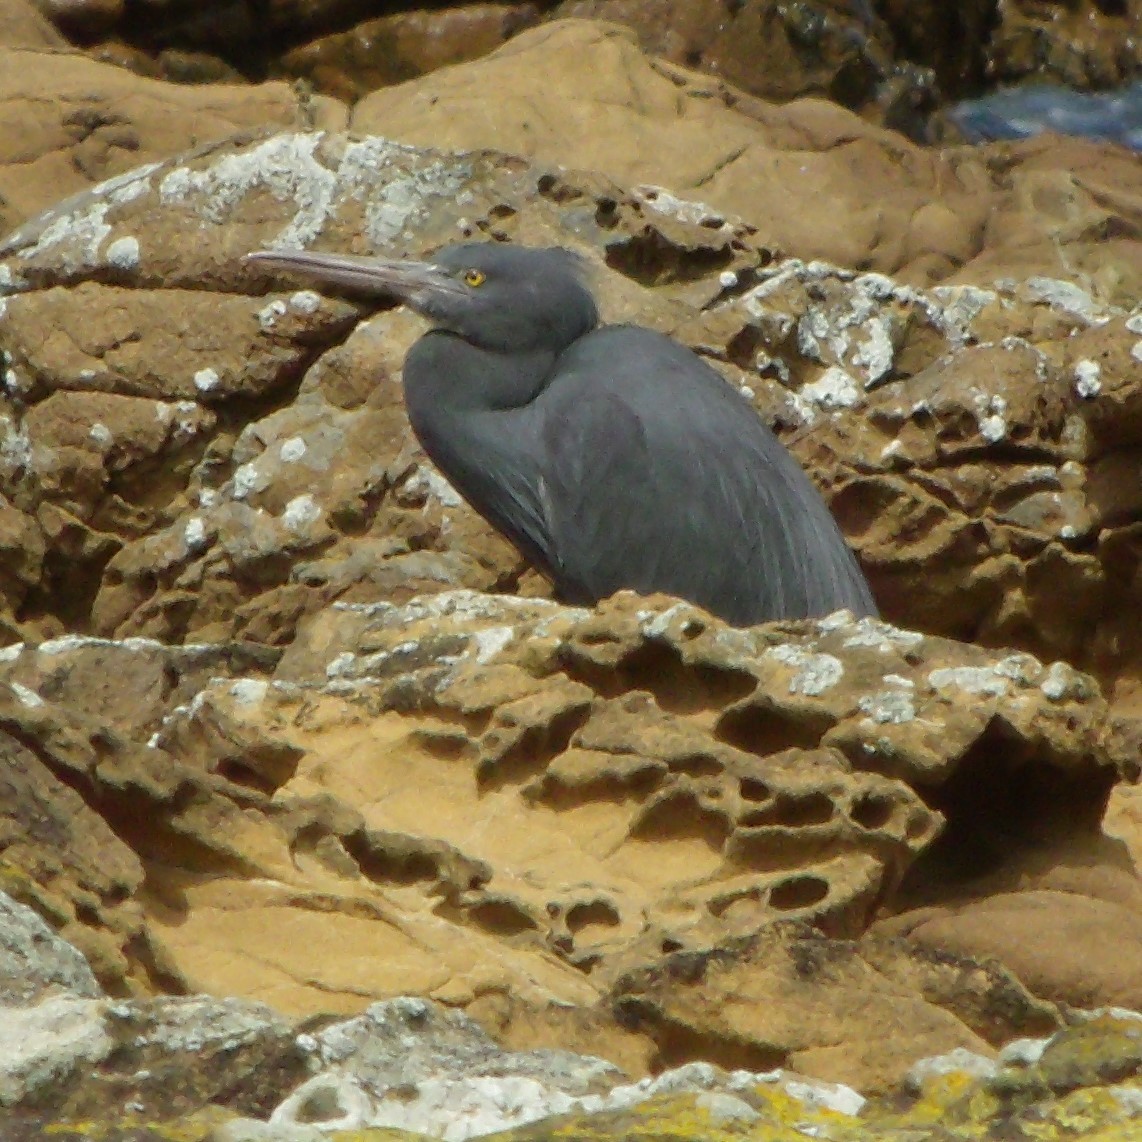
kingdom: Animalia
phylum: Chordata
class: Aves
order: Pelecaniformes
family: Ardeidae
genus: Egretta
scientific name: Egretta sacra
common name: Pacific reef heron
